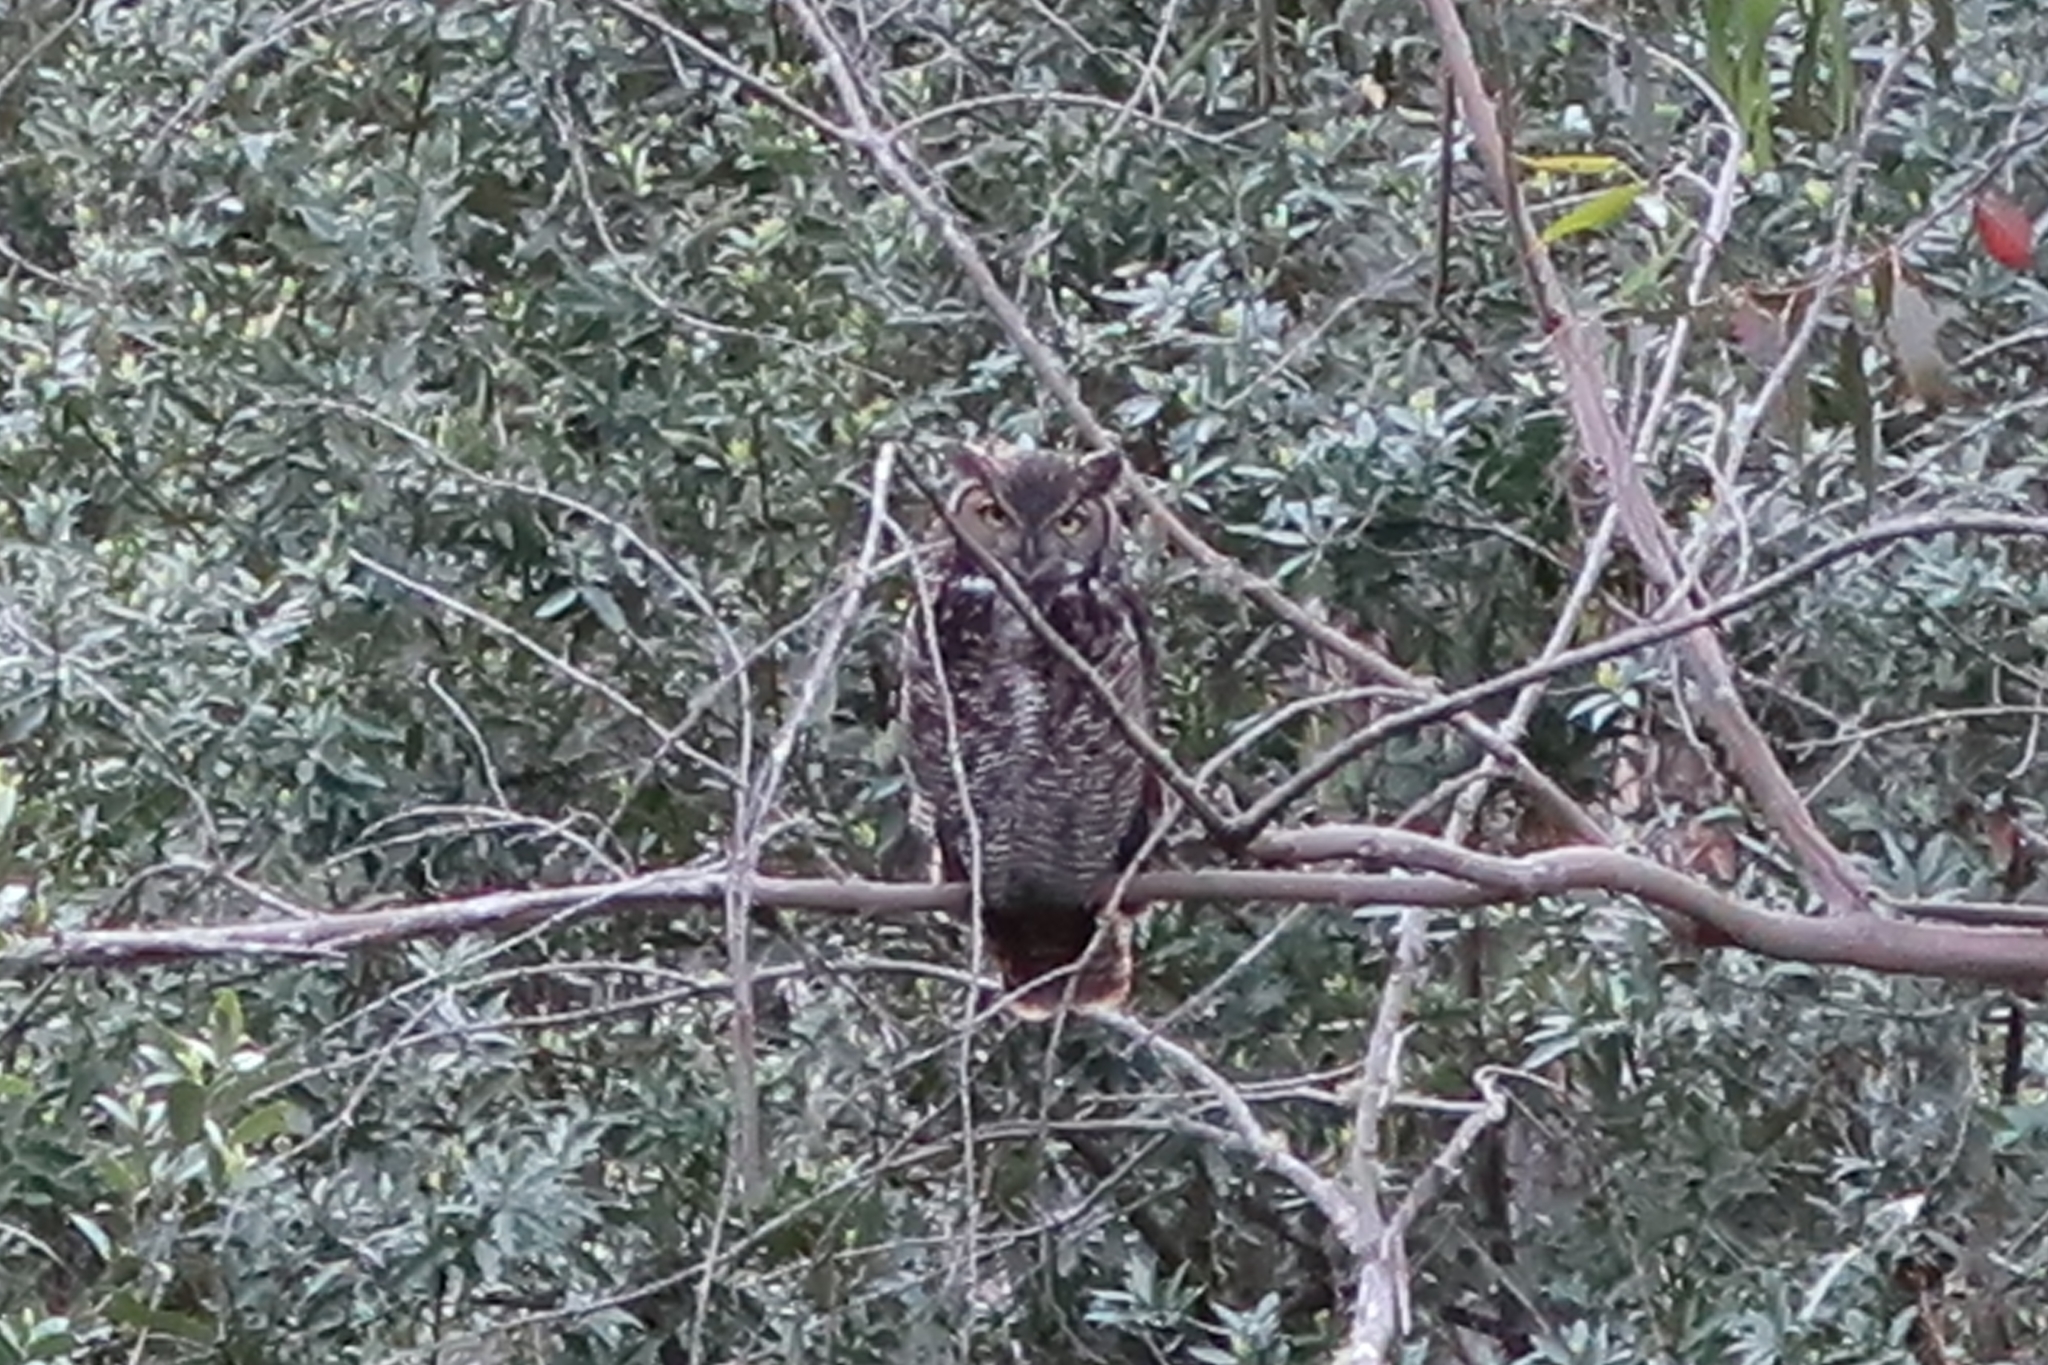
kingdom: Animalia
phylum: Chordata
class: Aves
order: Strigiformes
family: Strigidae
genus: Bubo
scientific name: Bubo virginianus
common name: Great horned owl
